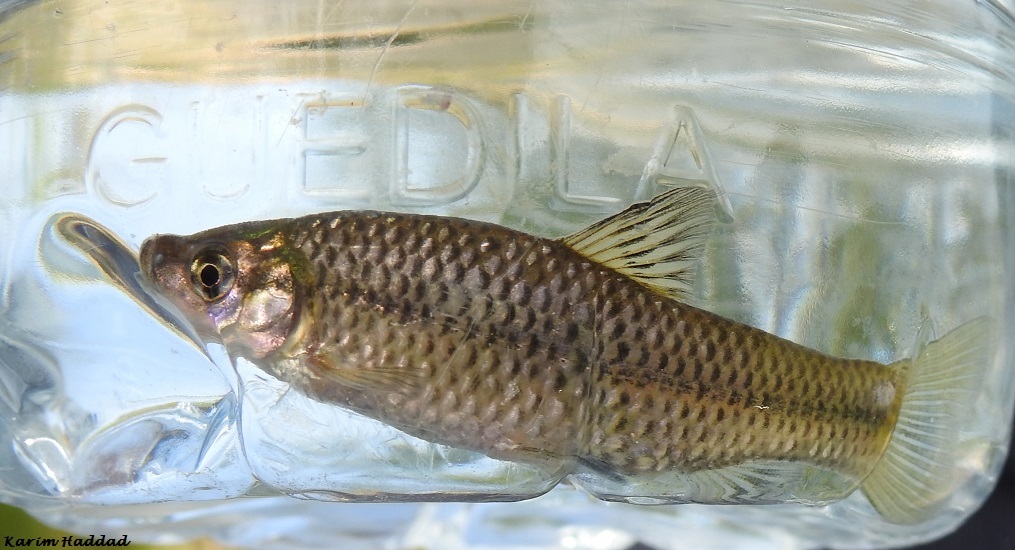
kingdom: Animalia
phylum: Chordata
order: Cypriniformes
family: Cyprinidae
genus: Pseudorasbora
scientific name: Pseudorasbora parva
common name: Topmouth gudgeon
